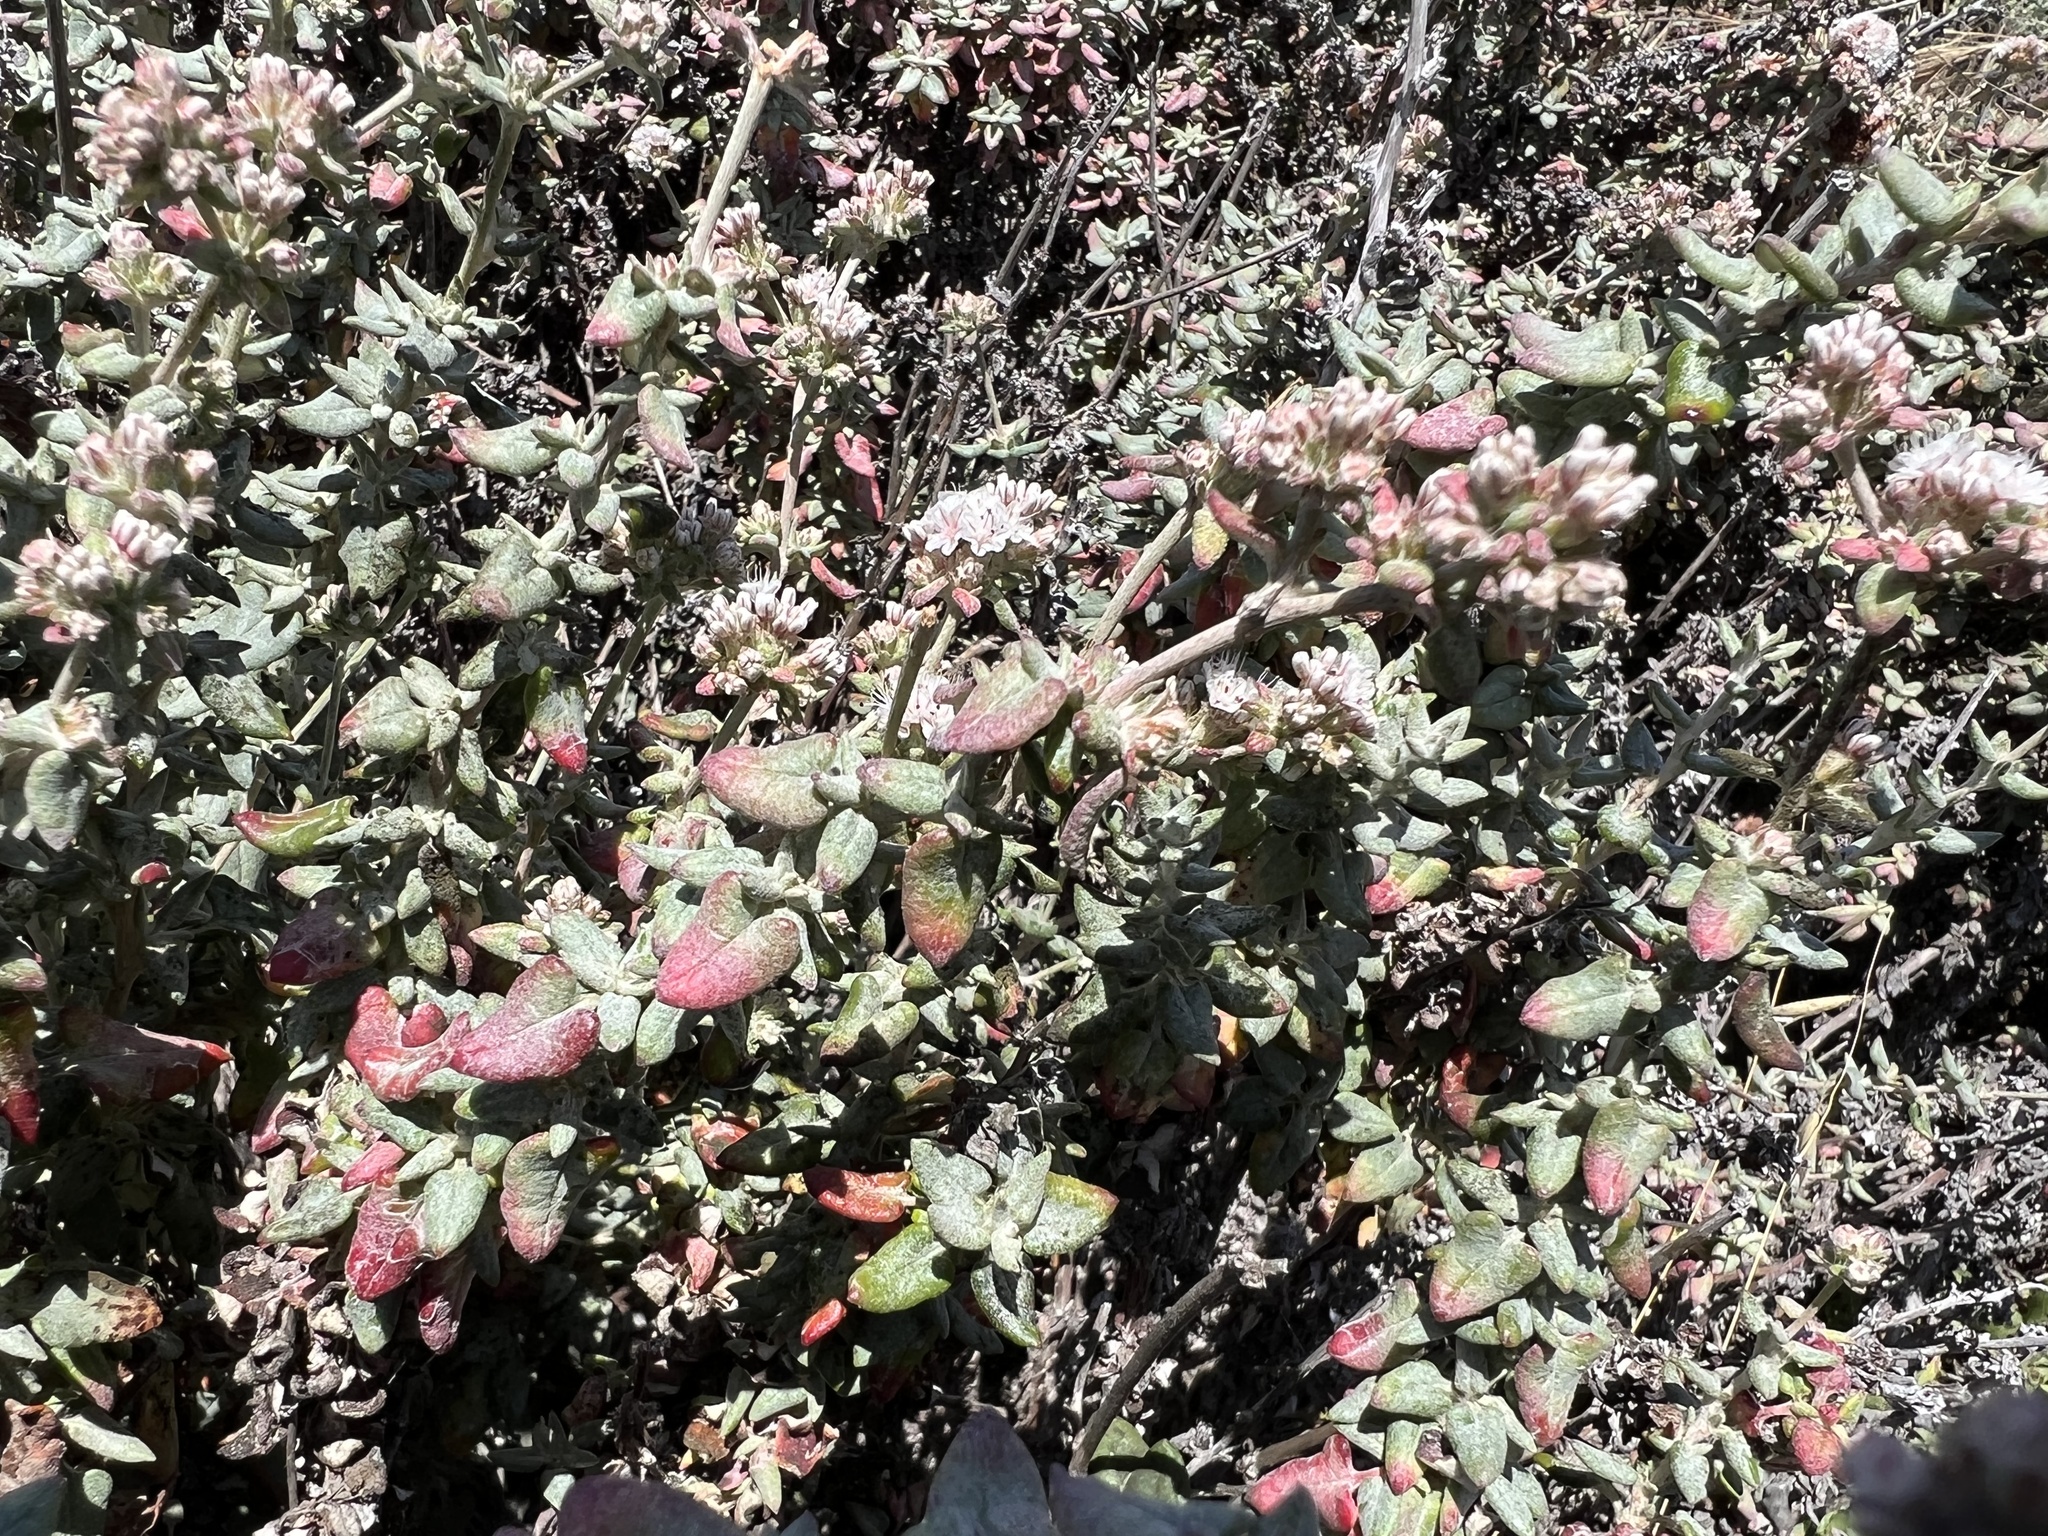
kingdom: Plantae
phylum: Tracheophyta
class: Magnoliopsida
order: Caryophyllales
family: Polygonaceae
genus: Eriogonum
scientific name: Eriogonum parvifolium
